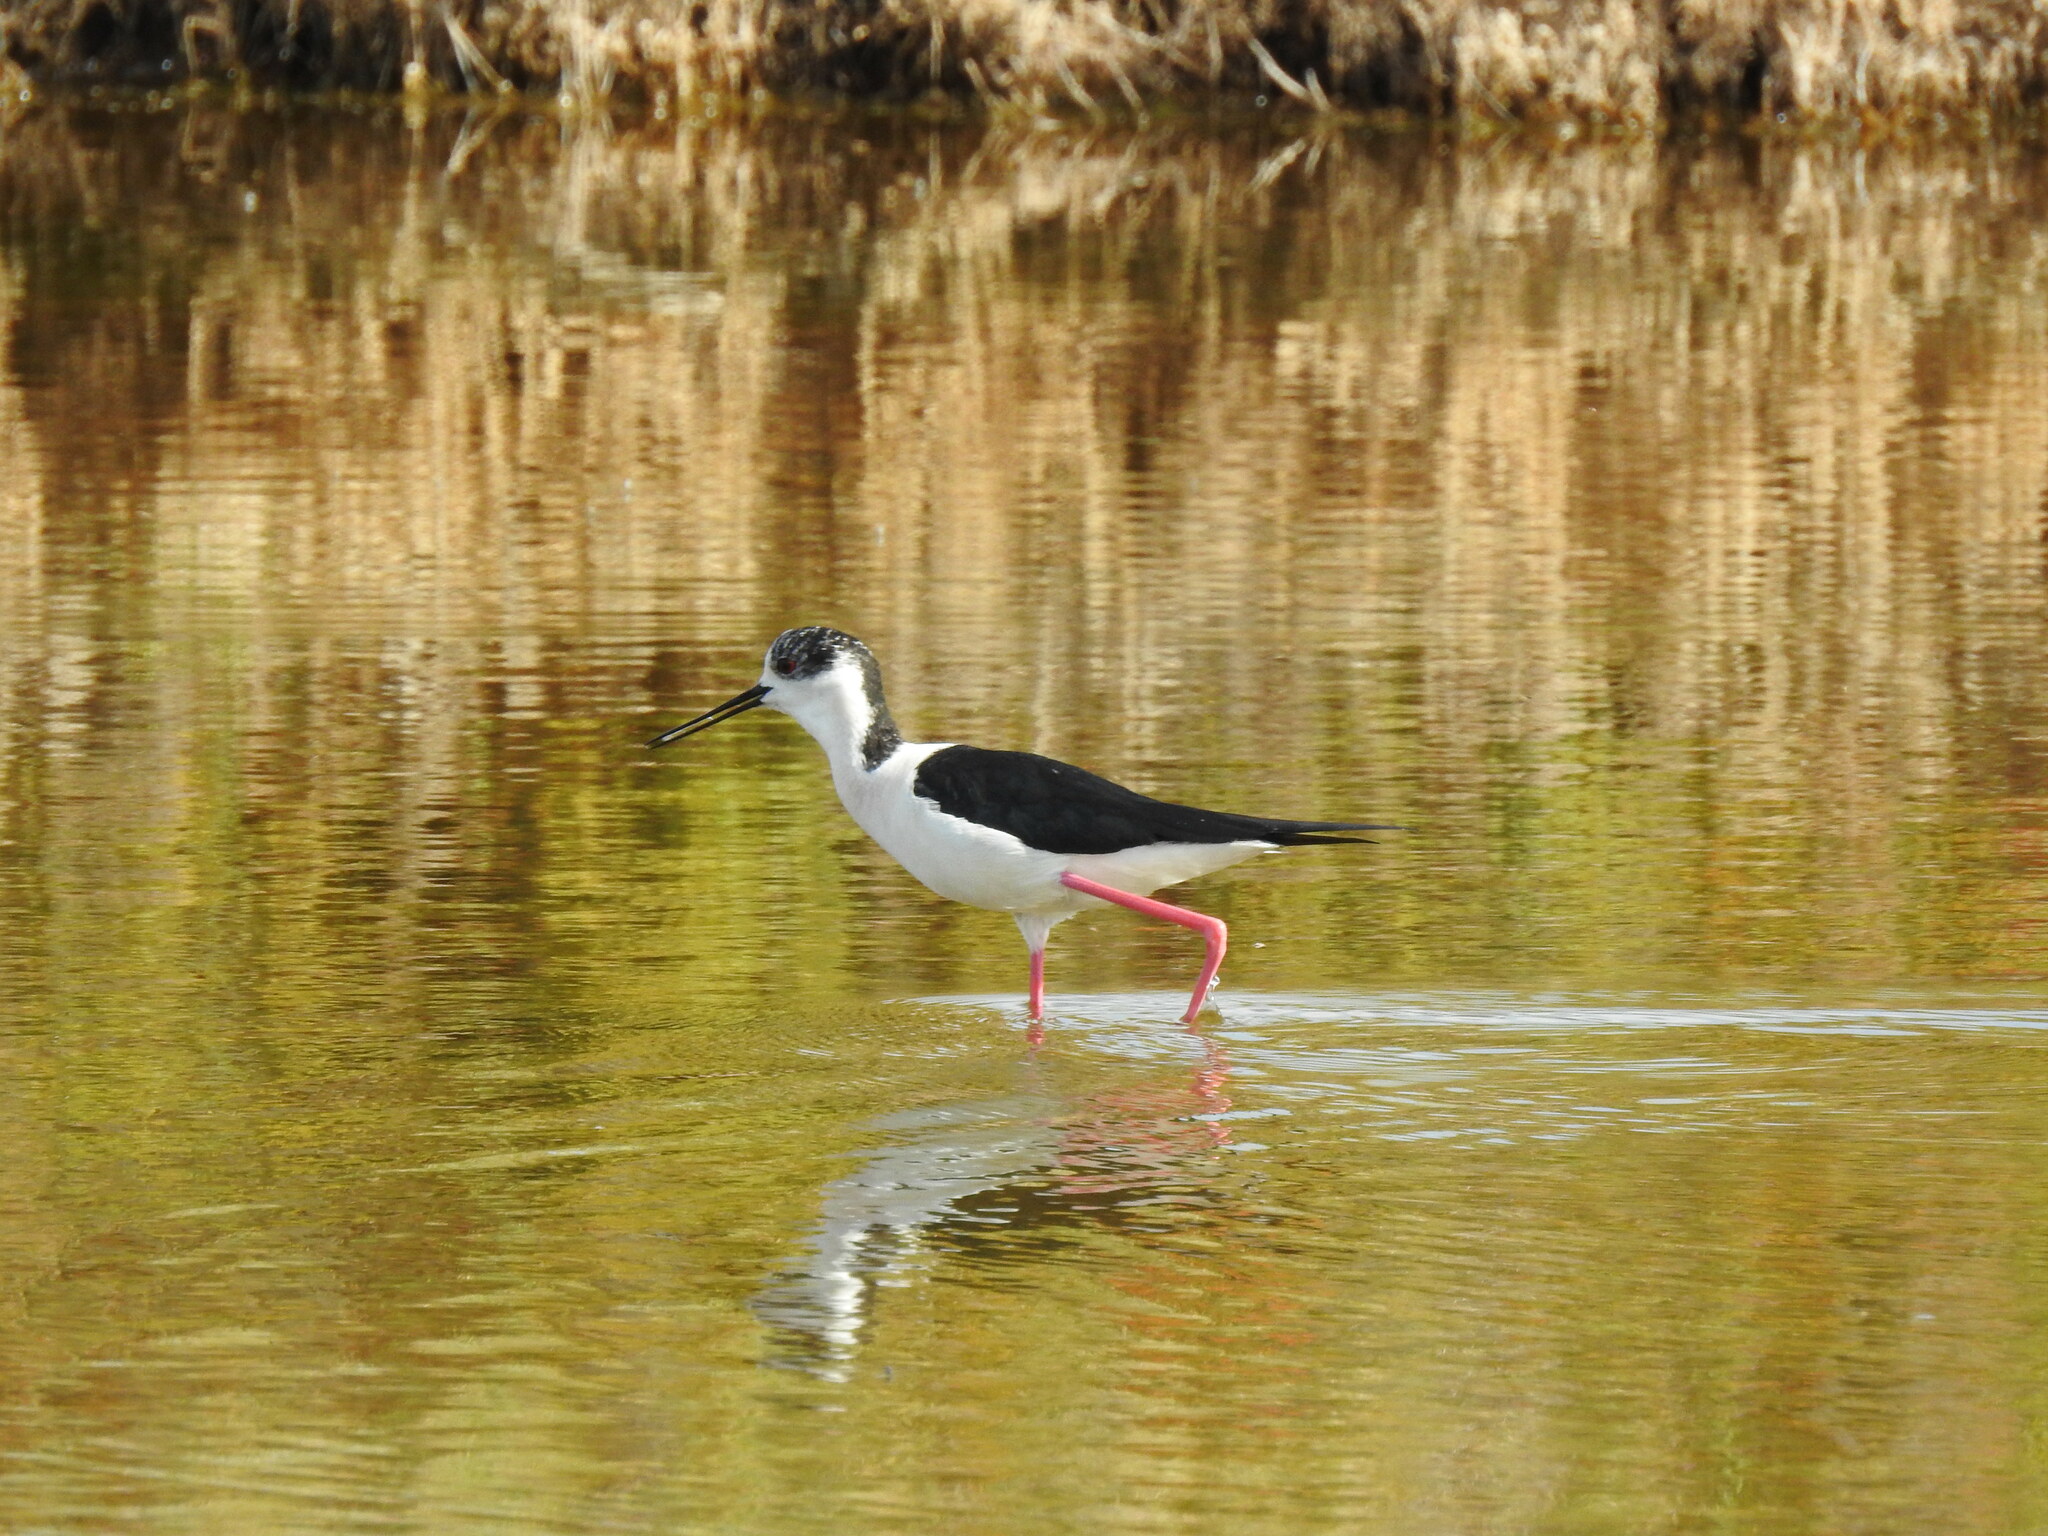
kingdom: Animalia
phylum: Chordata
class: Aves
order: Charadriiformes
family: Recurvirostridae
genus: Himantopus
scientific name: Himantopus himantopus
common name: Black-winged stilt
